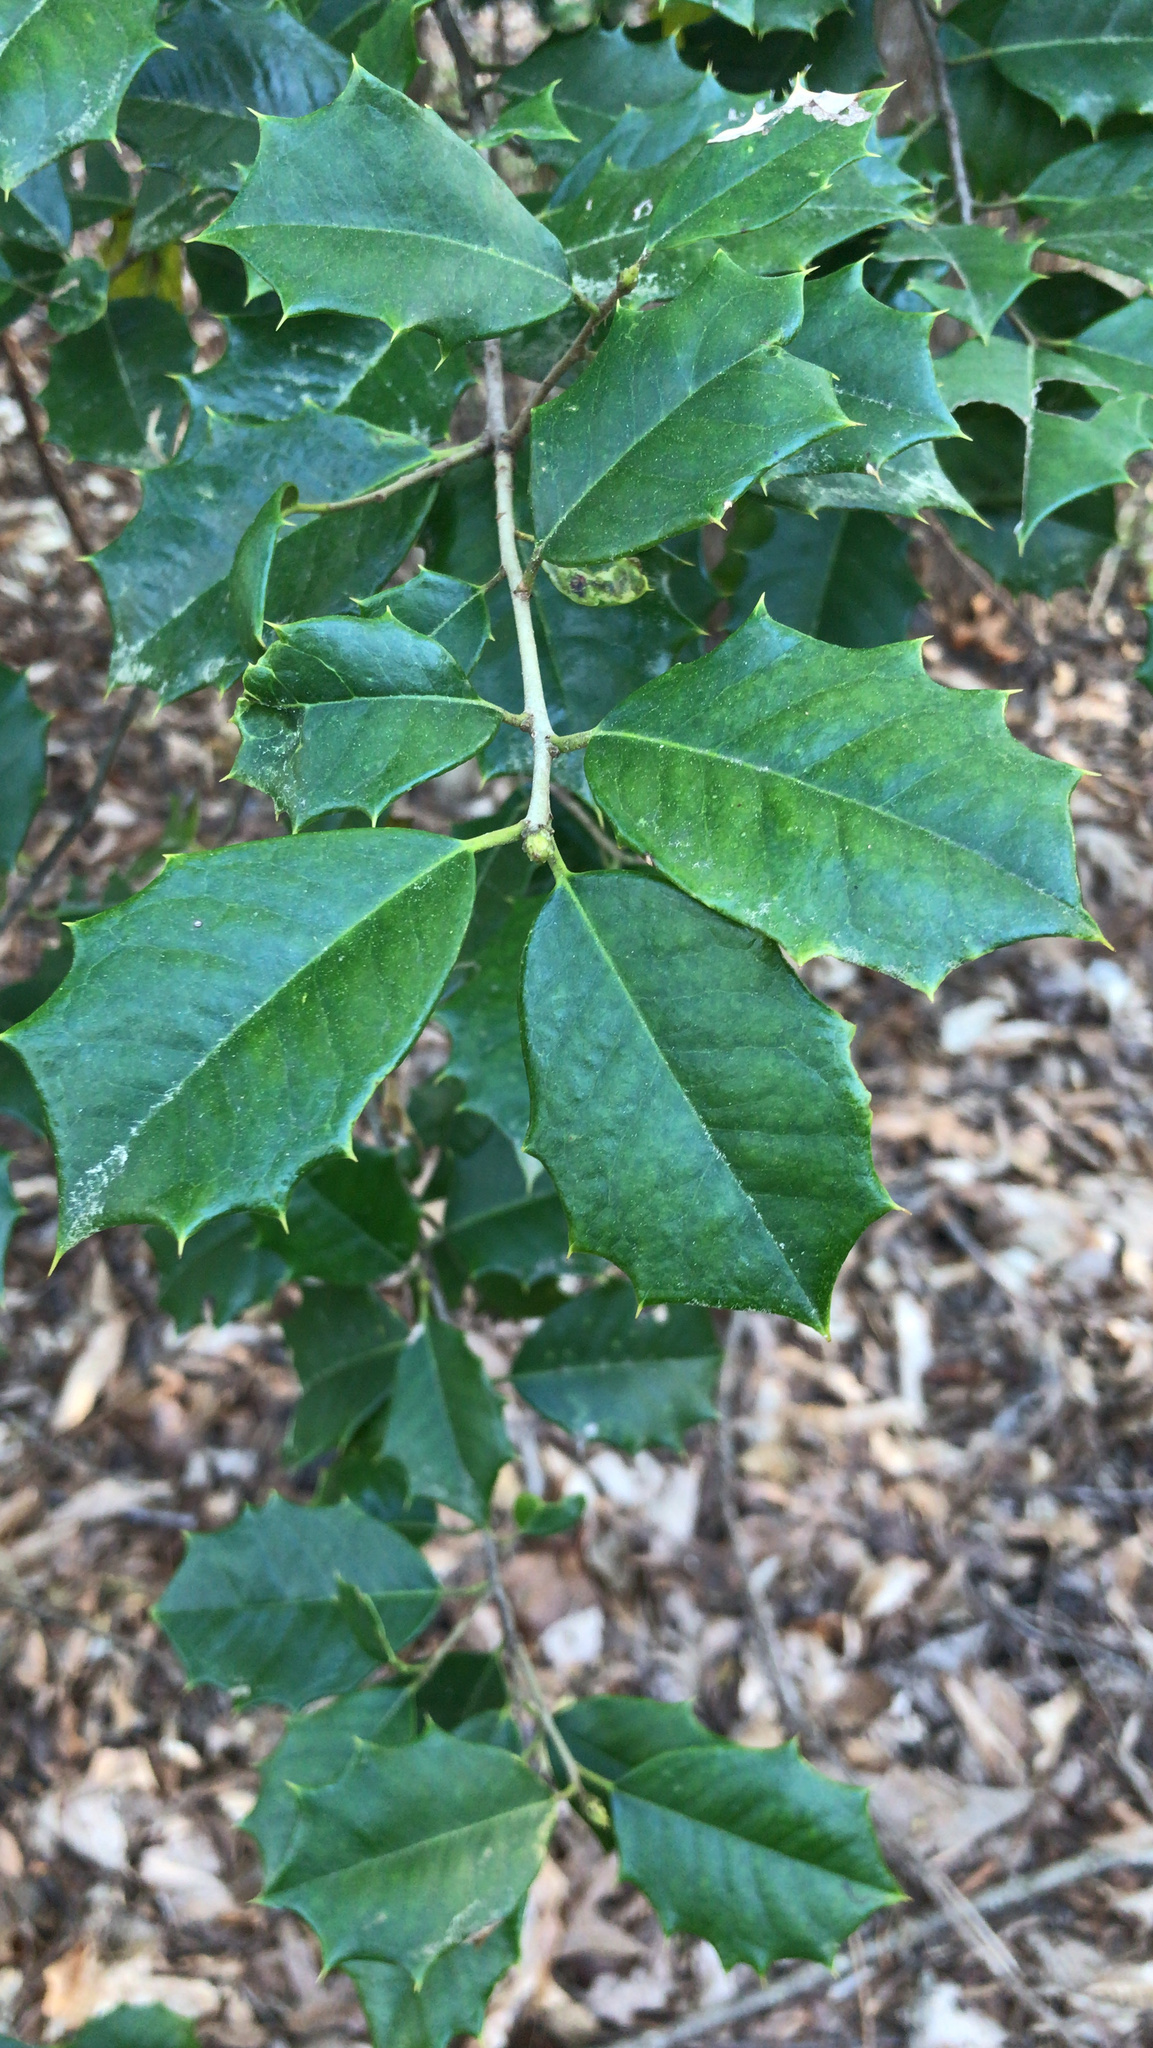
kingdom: Plantae
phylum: Tracheophyta
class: Magnoliopsida
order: Aquifoliales
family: Aquifoliaceae
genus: Ilex
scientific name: Ilex opaca
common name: American holly
